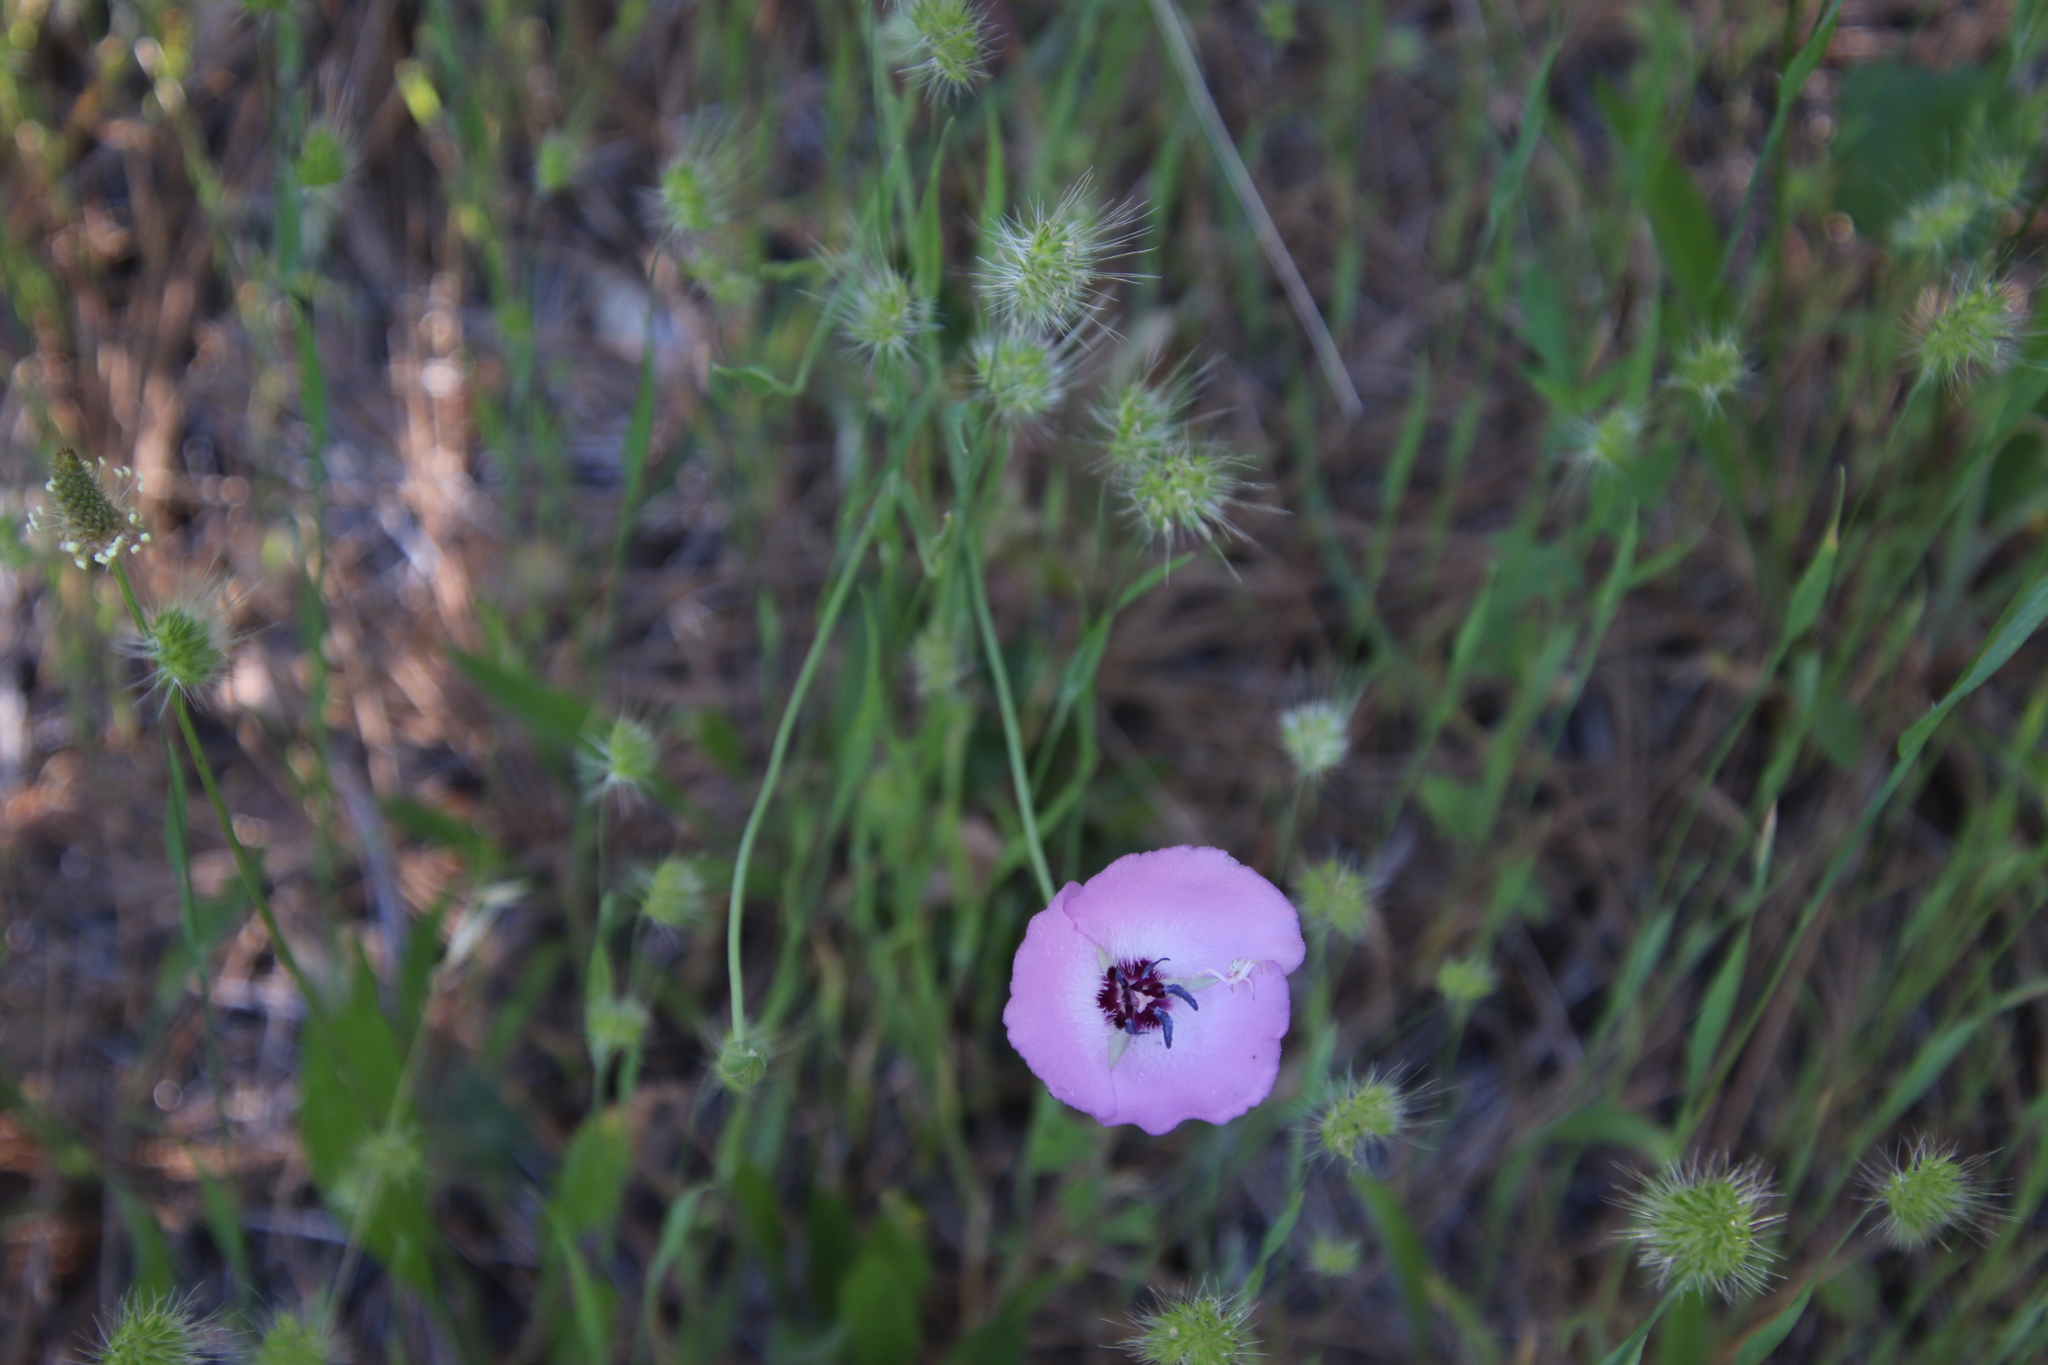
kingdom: Plantae
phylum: Tracheophyta
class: Liliopsida
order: Liliales
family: Liliaceae
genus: Calochortus
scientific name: Calochortus splendens
